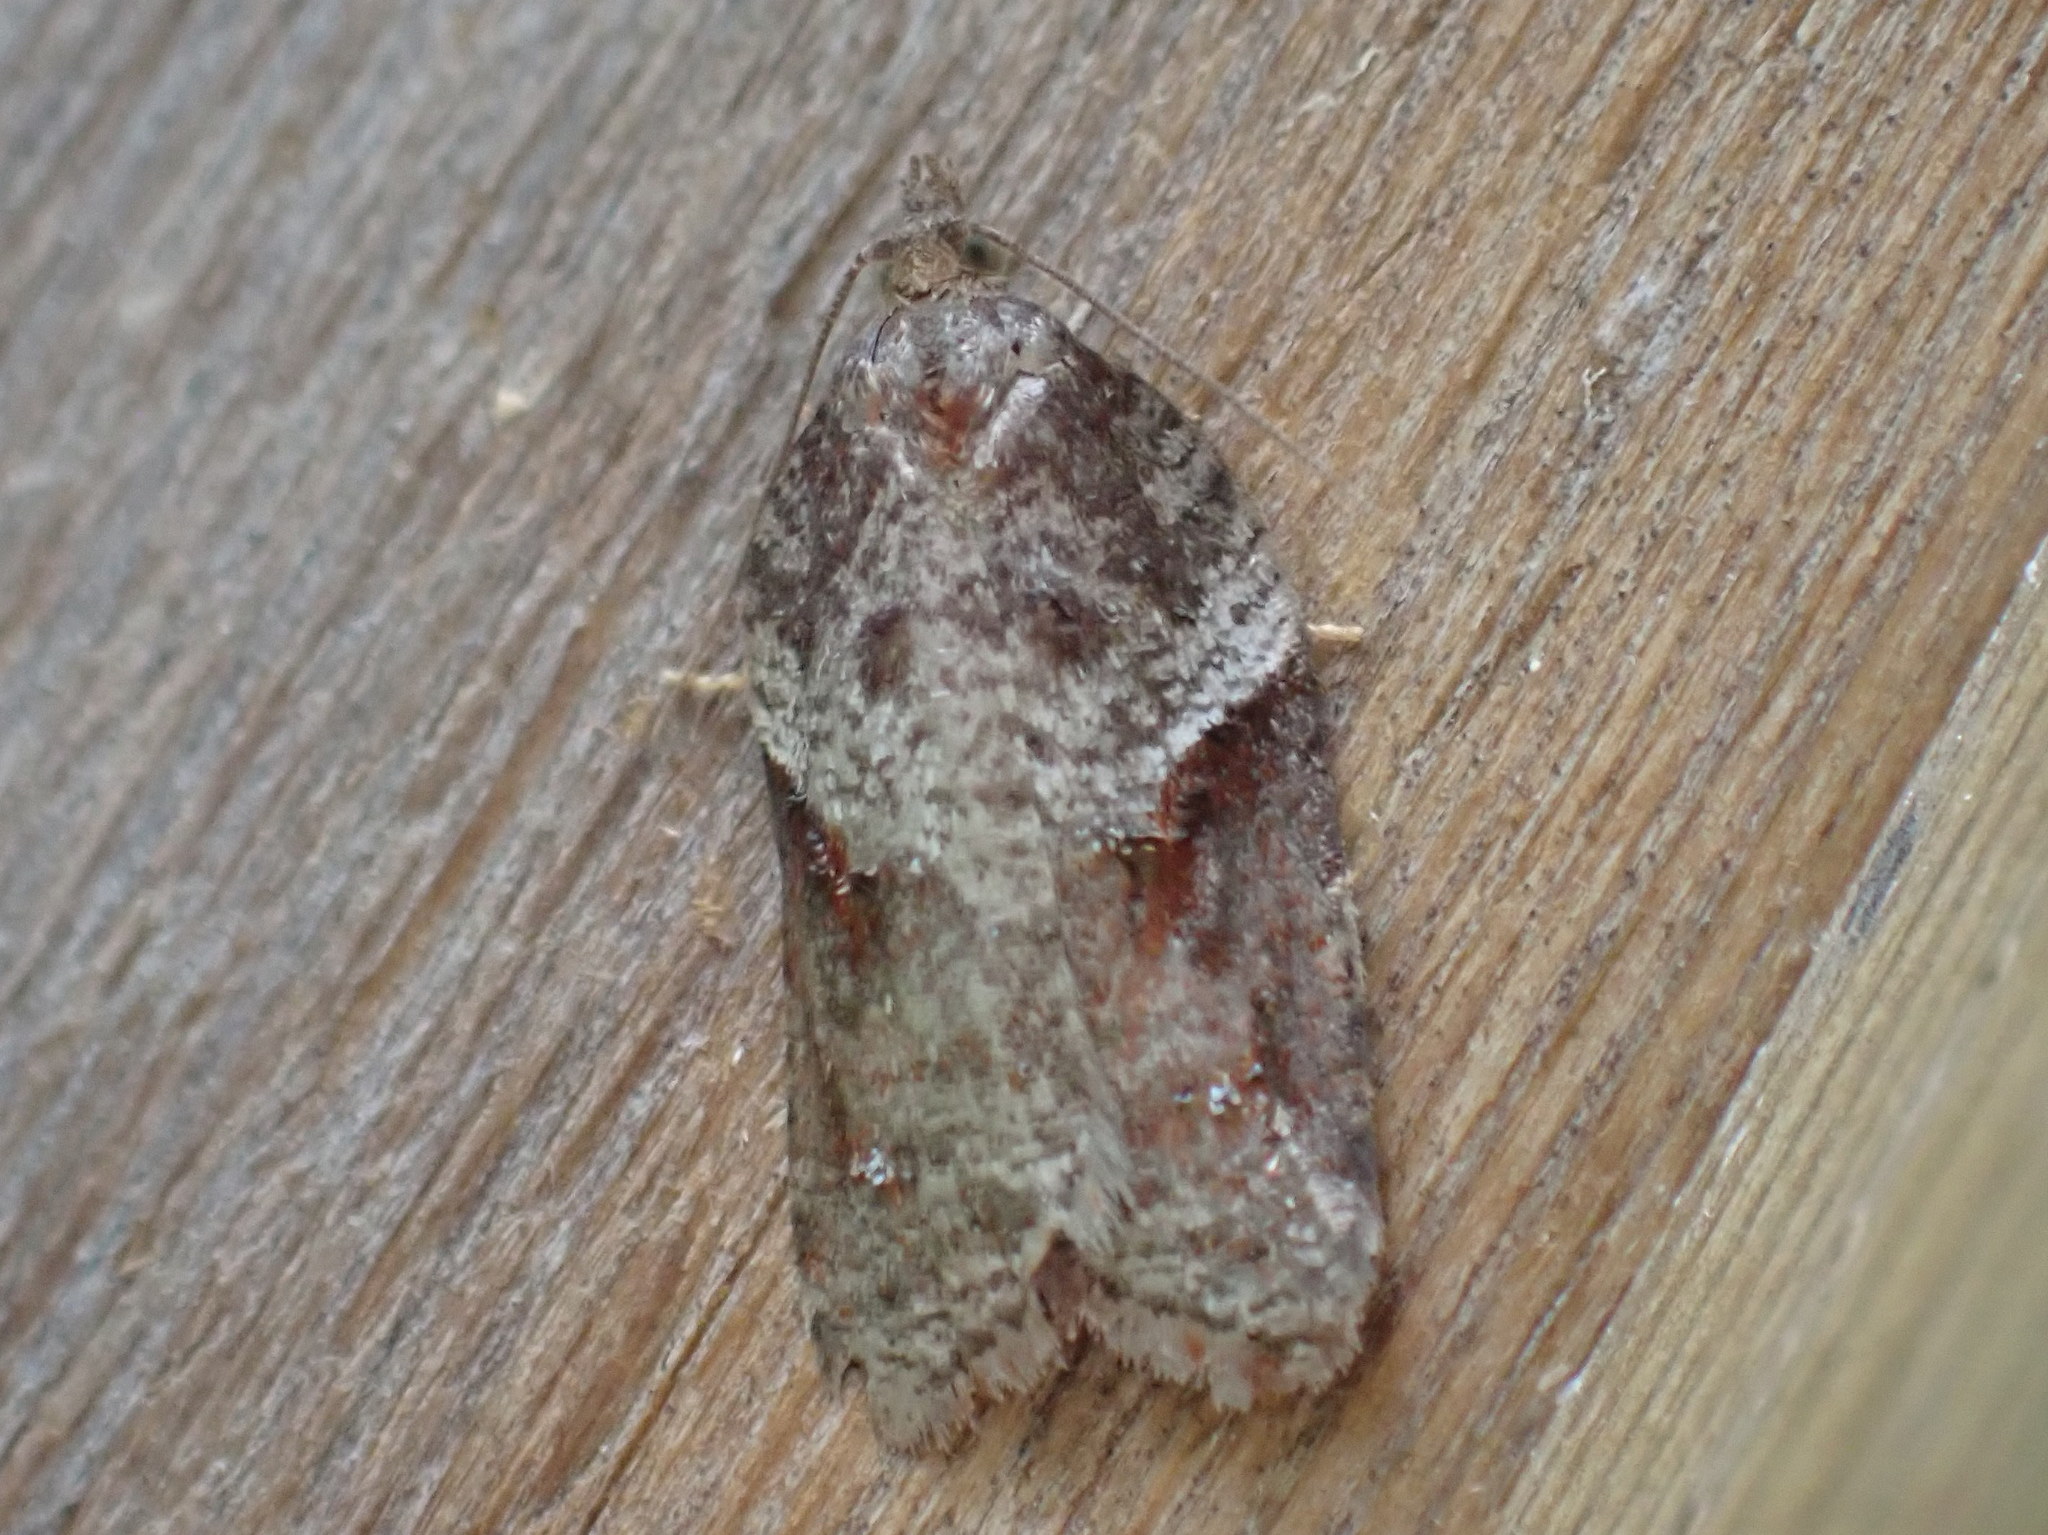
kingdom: Animalia
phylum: Arthropoda
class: Insecta
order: Lepidoptera
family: Tortricidae
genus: Acleris
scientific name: Acleris macdunnoughi
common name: Macdunnough's acleris
